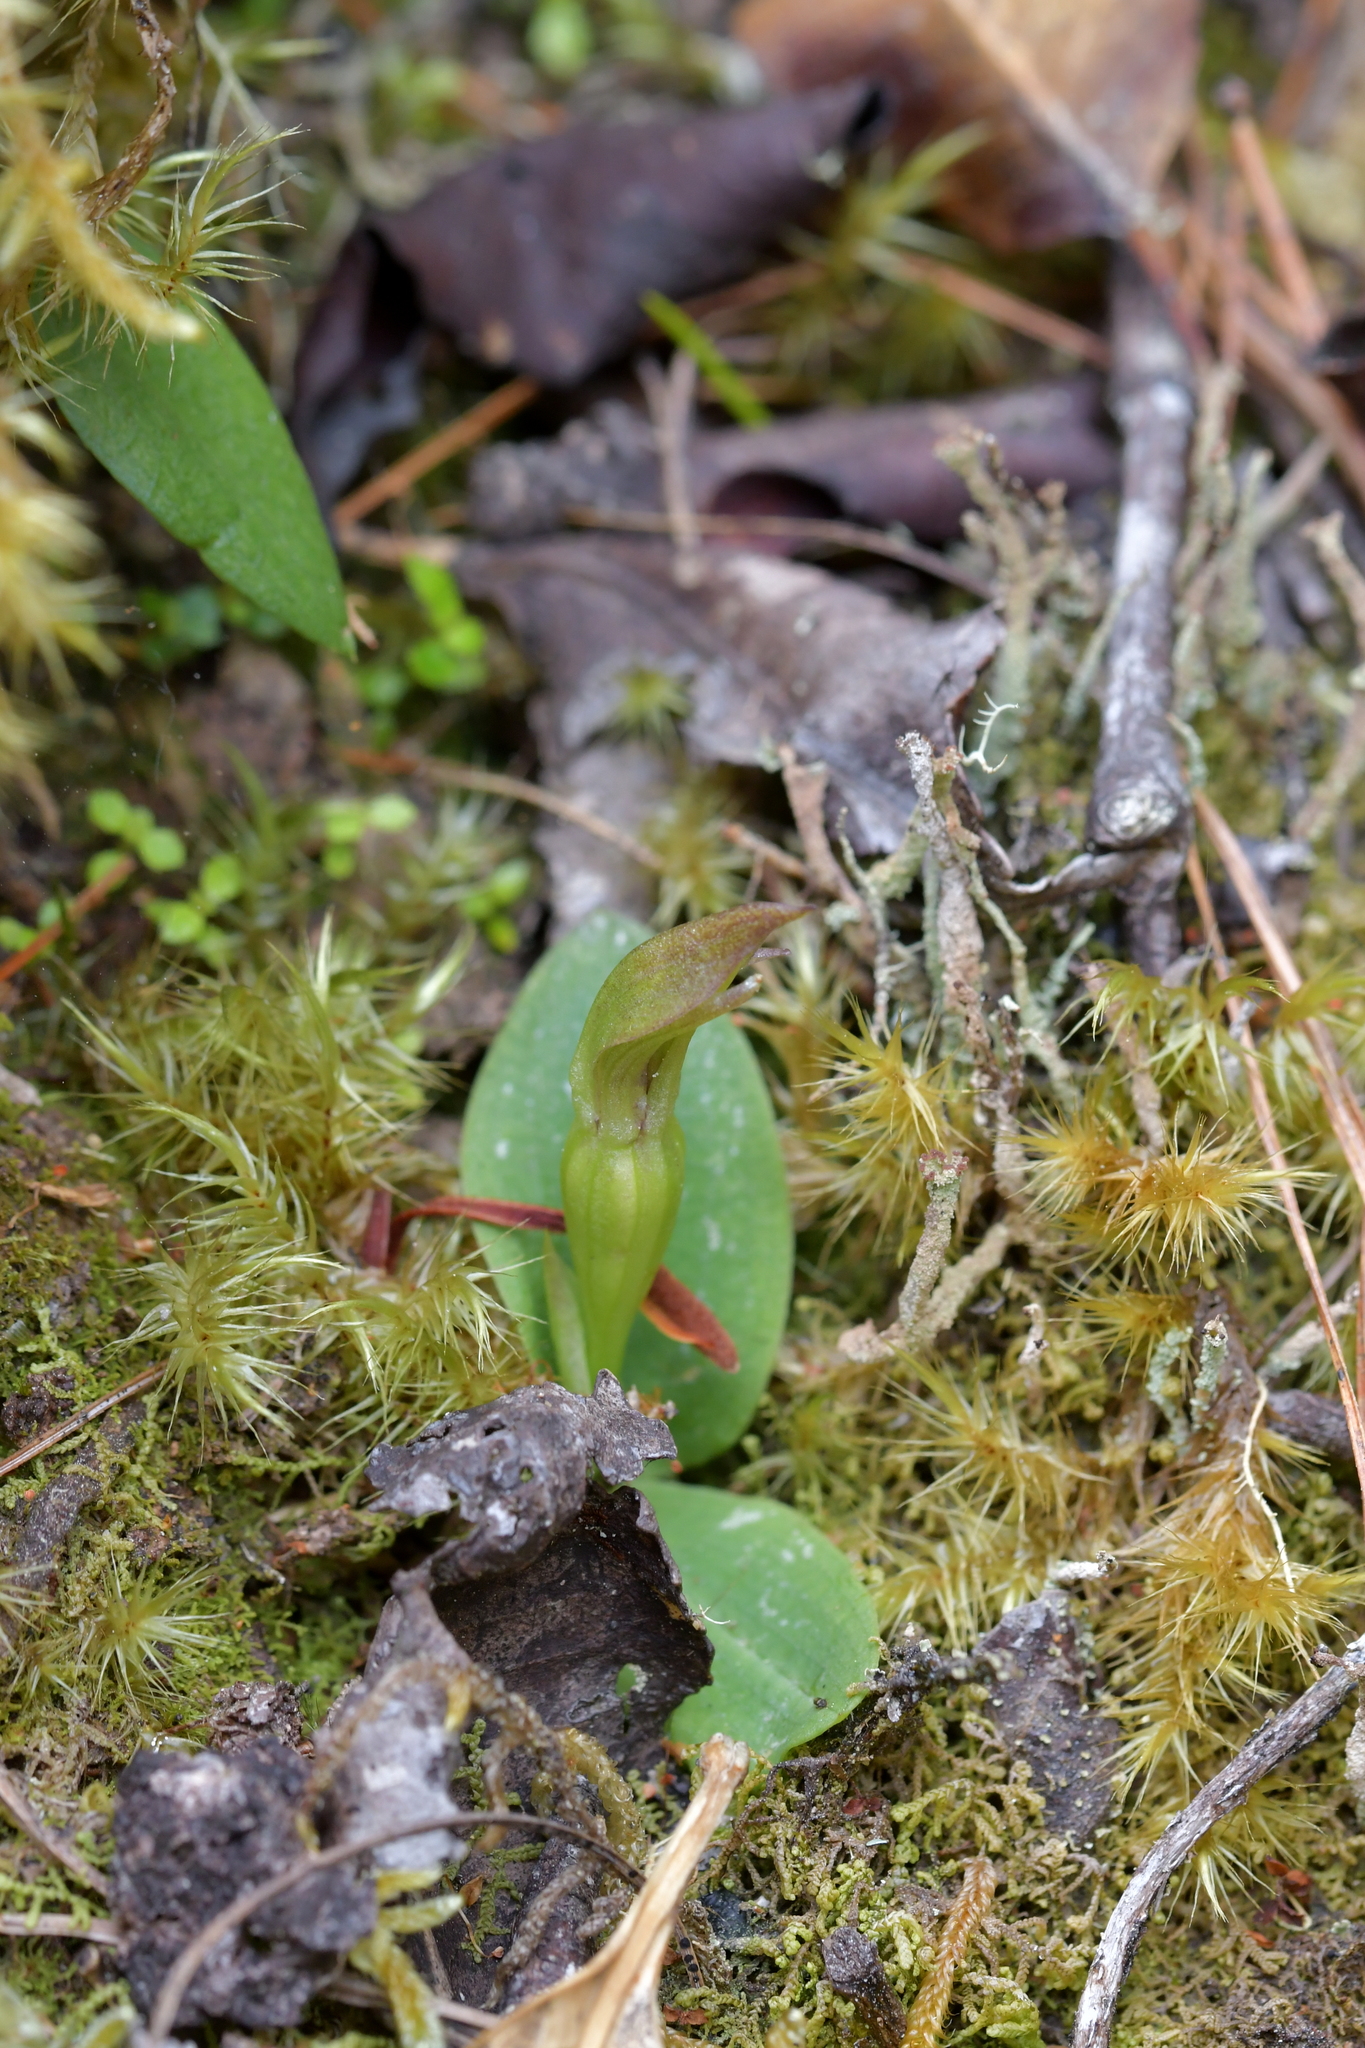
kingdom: Plantae
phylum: Tracheophyta
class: Liliopsida
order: Asparagales
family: Orchidaceae
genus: Chiloglottis
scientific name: Chiloglottis cornuta
